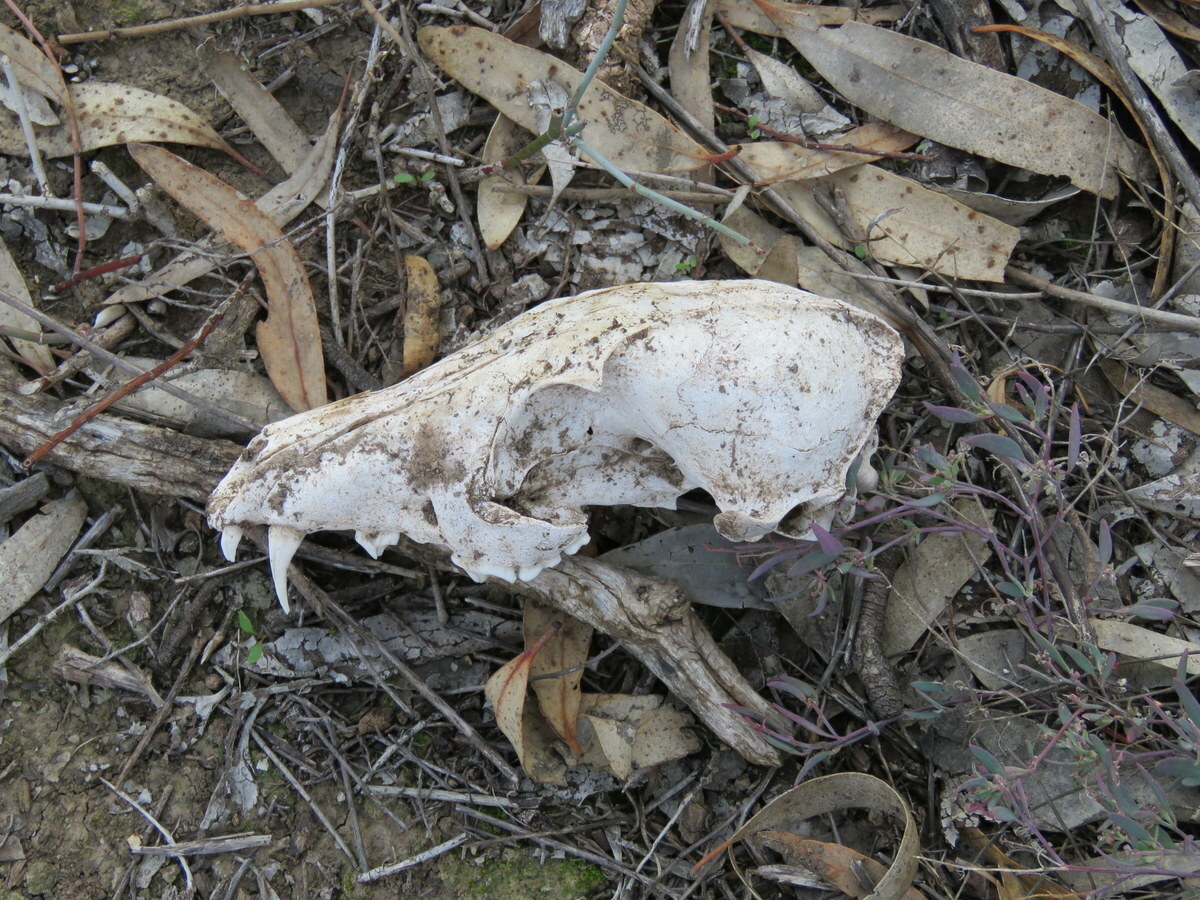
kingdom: Animalia
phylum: Chordata
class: Mammalia
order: Carnivora
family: Canidae
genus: Vulpes
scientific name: Vulpes vulpes
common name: Red fox
